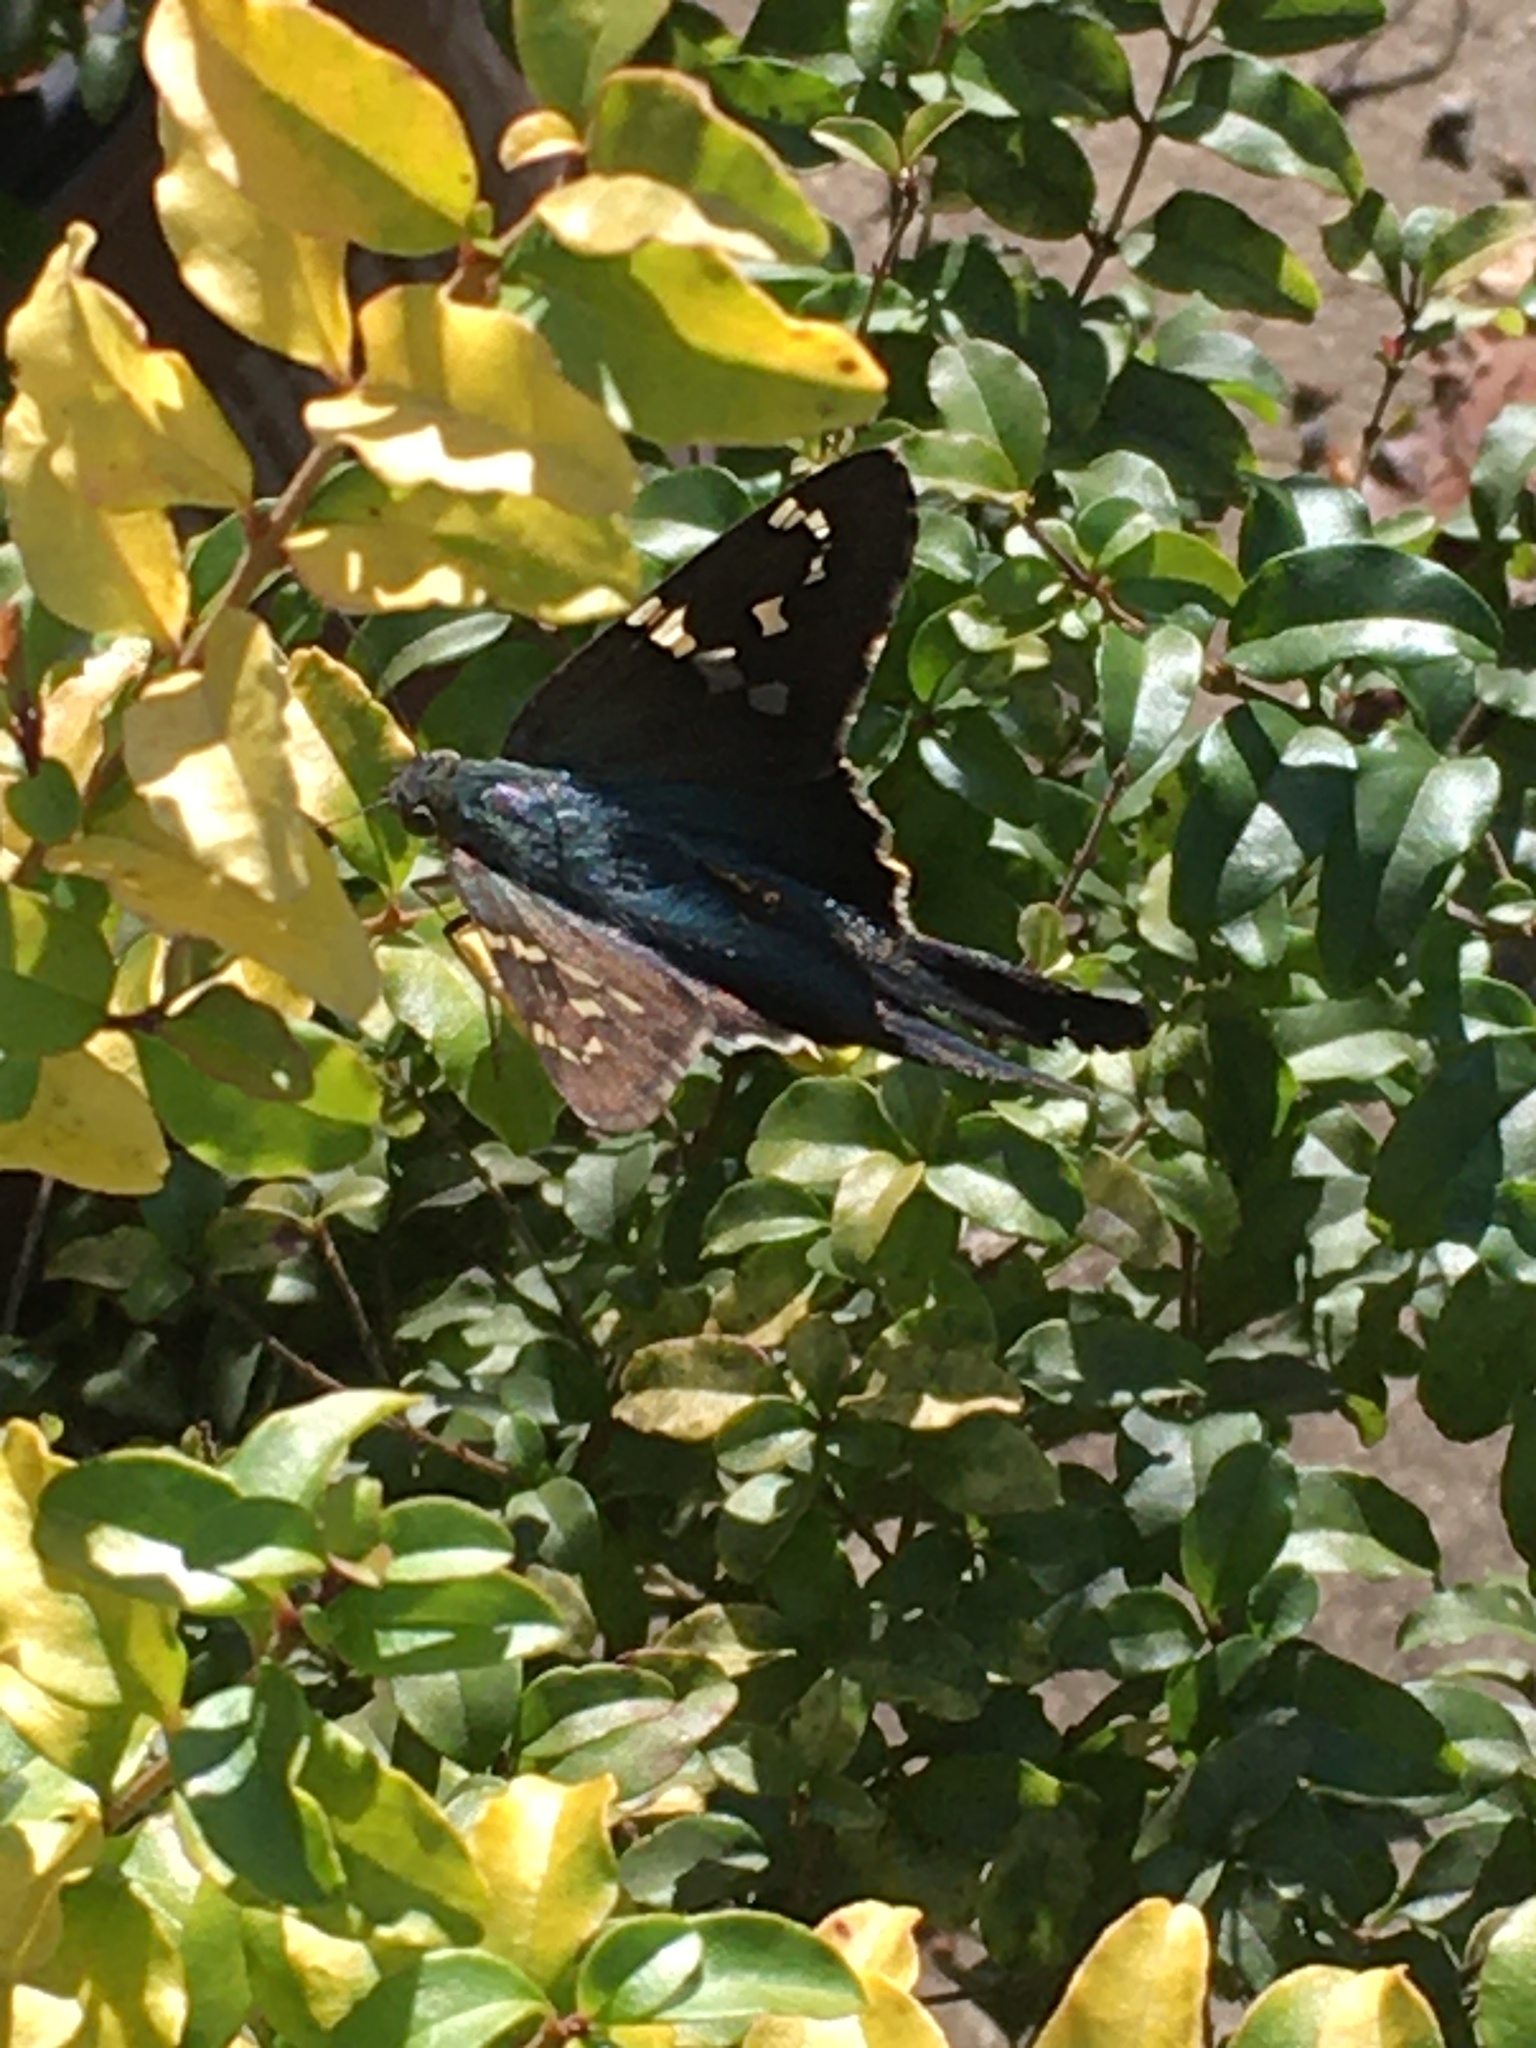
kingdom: Animalia
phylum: Arthropoda
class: Insecta
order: Lepidoptera
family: Hesperiidae
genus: Urbanus
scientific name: Urbanus proteus
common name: Long-tailed skipper
